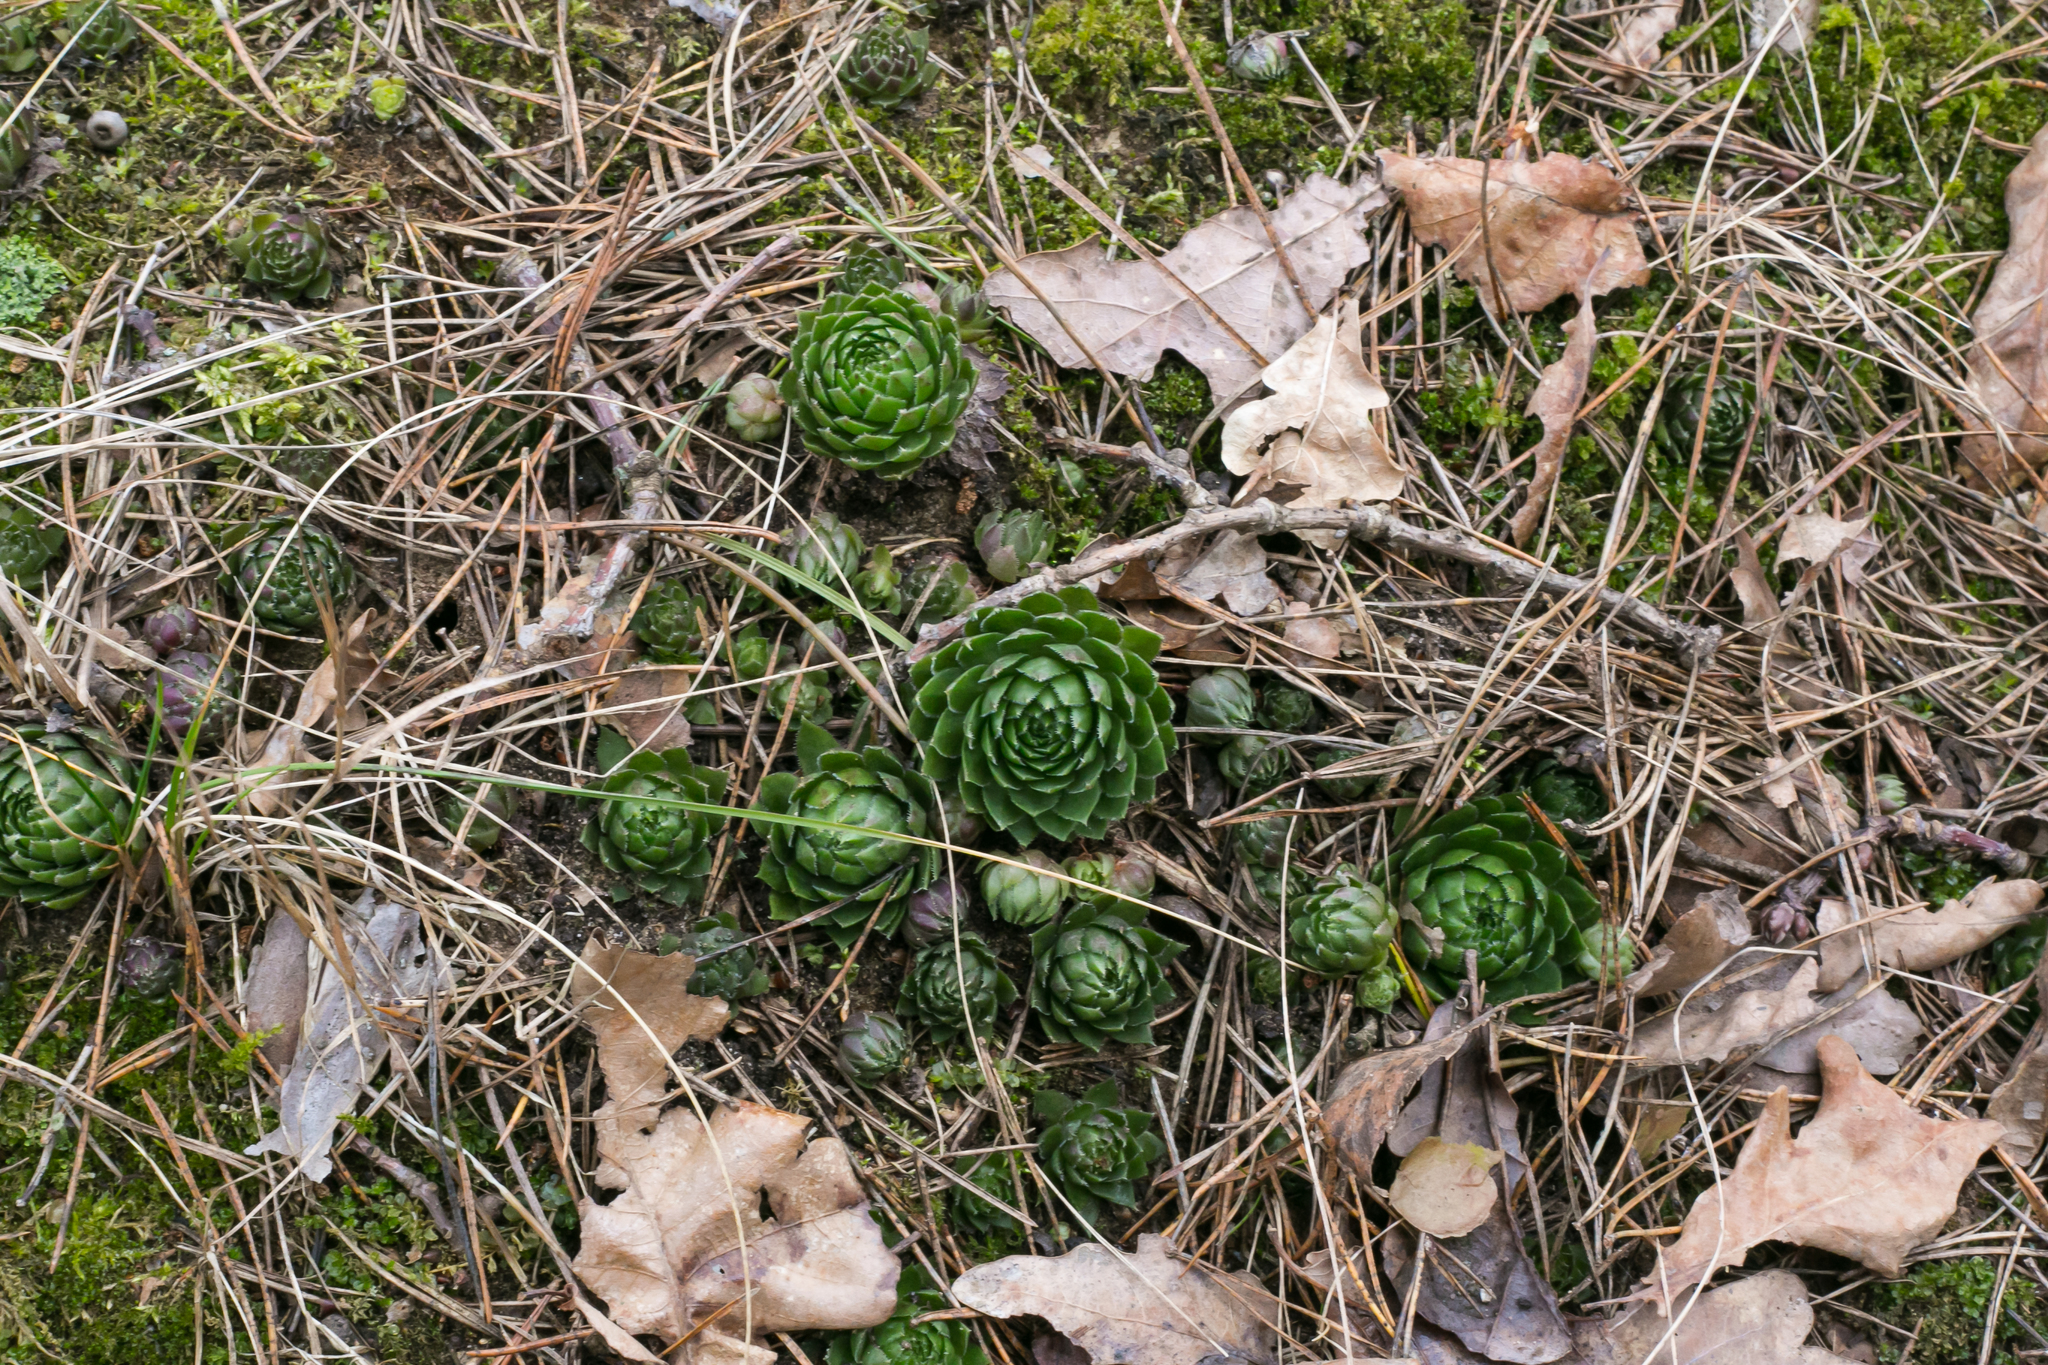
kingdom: Plantae
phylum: Tracheophyta
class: Magnoliopsida
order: Saxifragales
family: Crassulaceae
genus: Sempervivum
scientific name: Sempervivum globiferum
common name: Rolling hen-and-chicks
